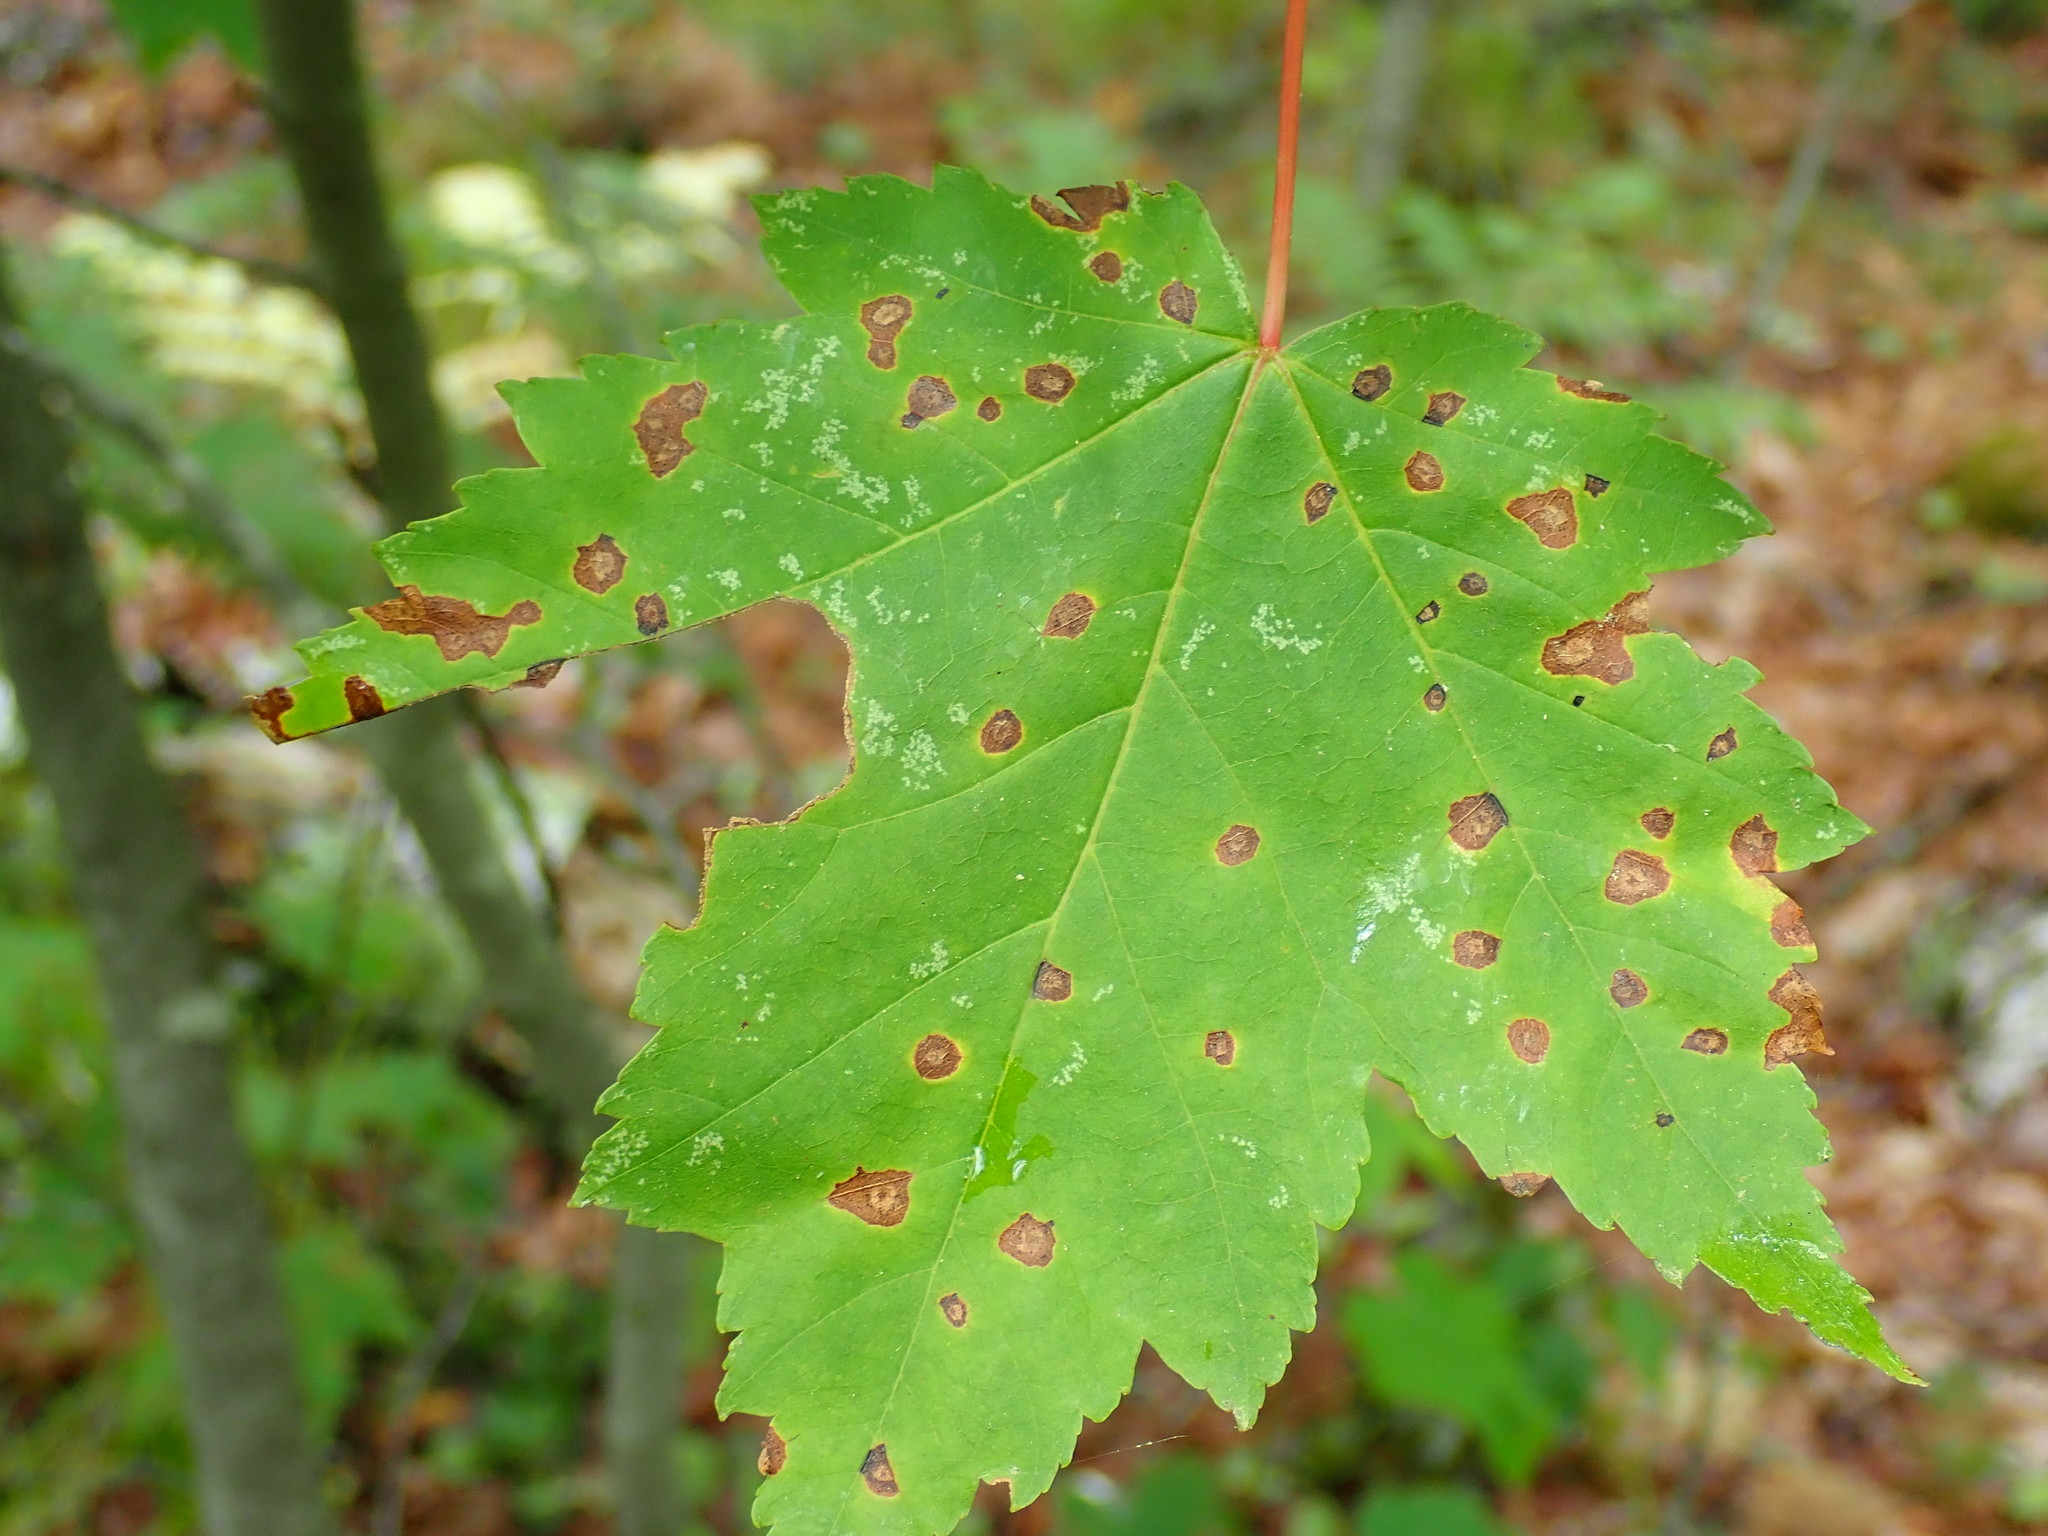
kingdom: Animalia
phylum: Arthropoda
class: Insecta
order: Diptera
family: Cecidomyiidae
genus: Acericecis
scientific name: Acericecis ocellaris
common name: Ocellate gall midge
